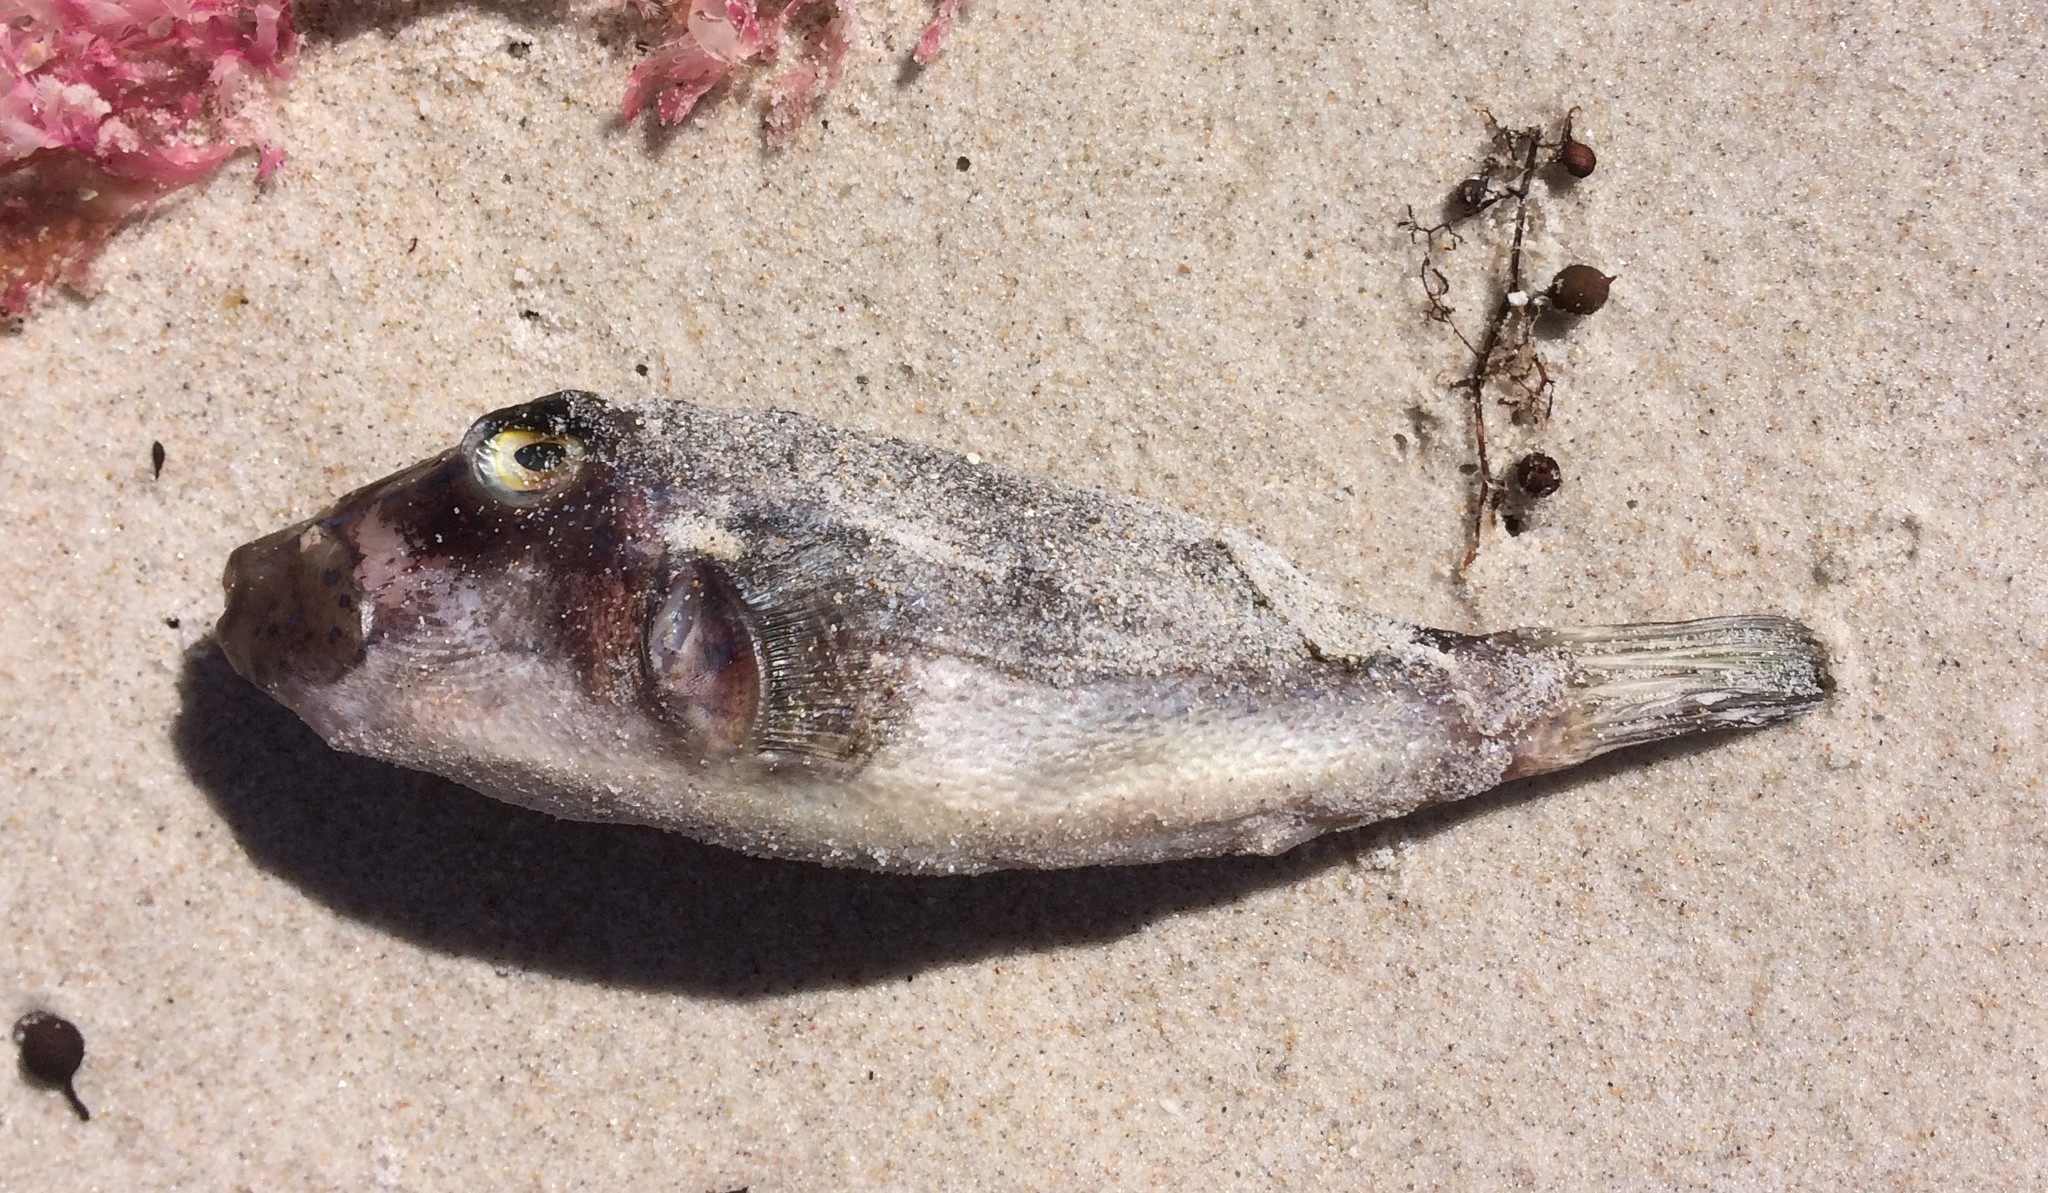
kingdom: Animalia
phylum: Chordata
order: Tetraodontiformes
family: Tetraodontidae
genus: Omegophora
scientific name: Omegophora armilla
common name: Ringed pufferfish
